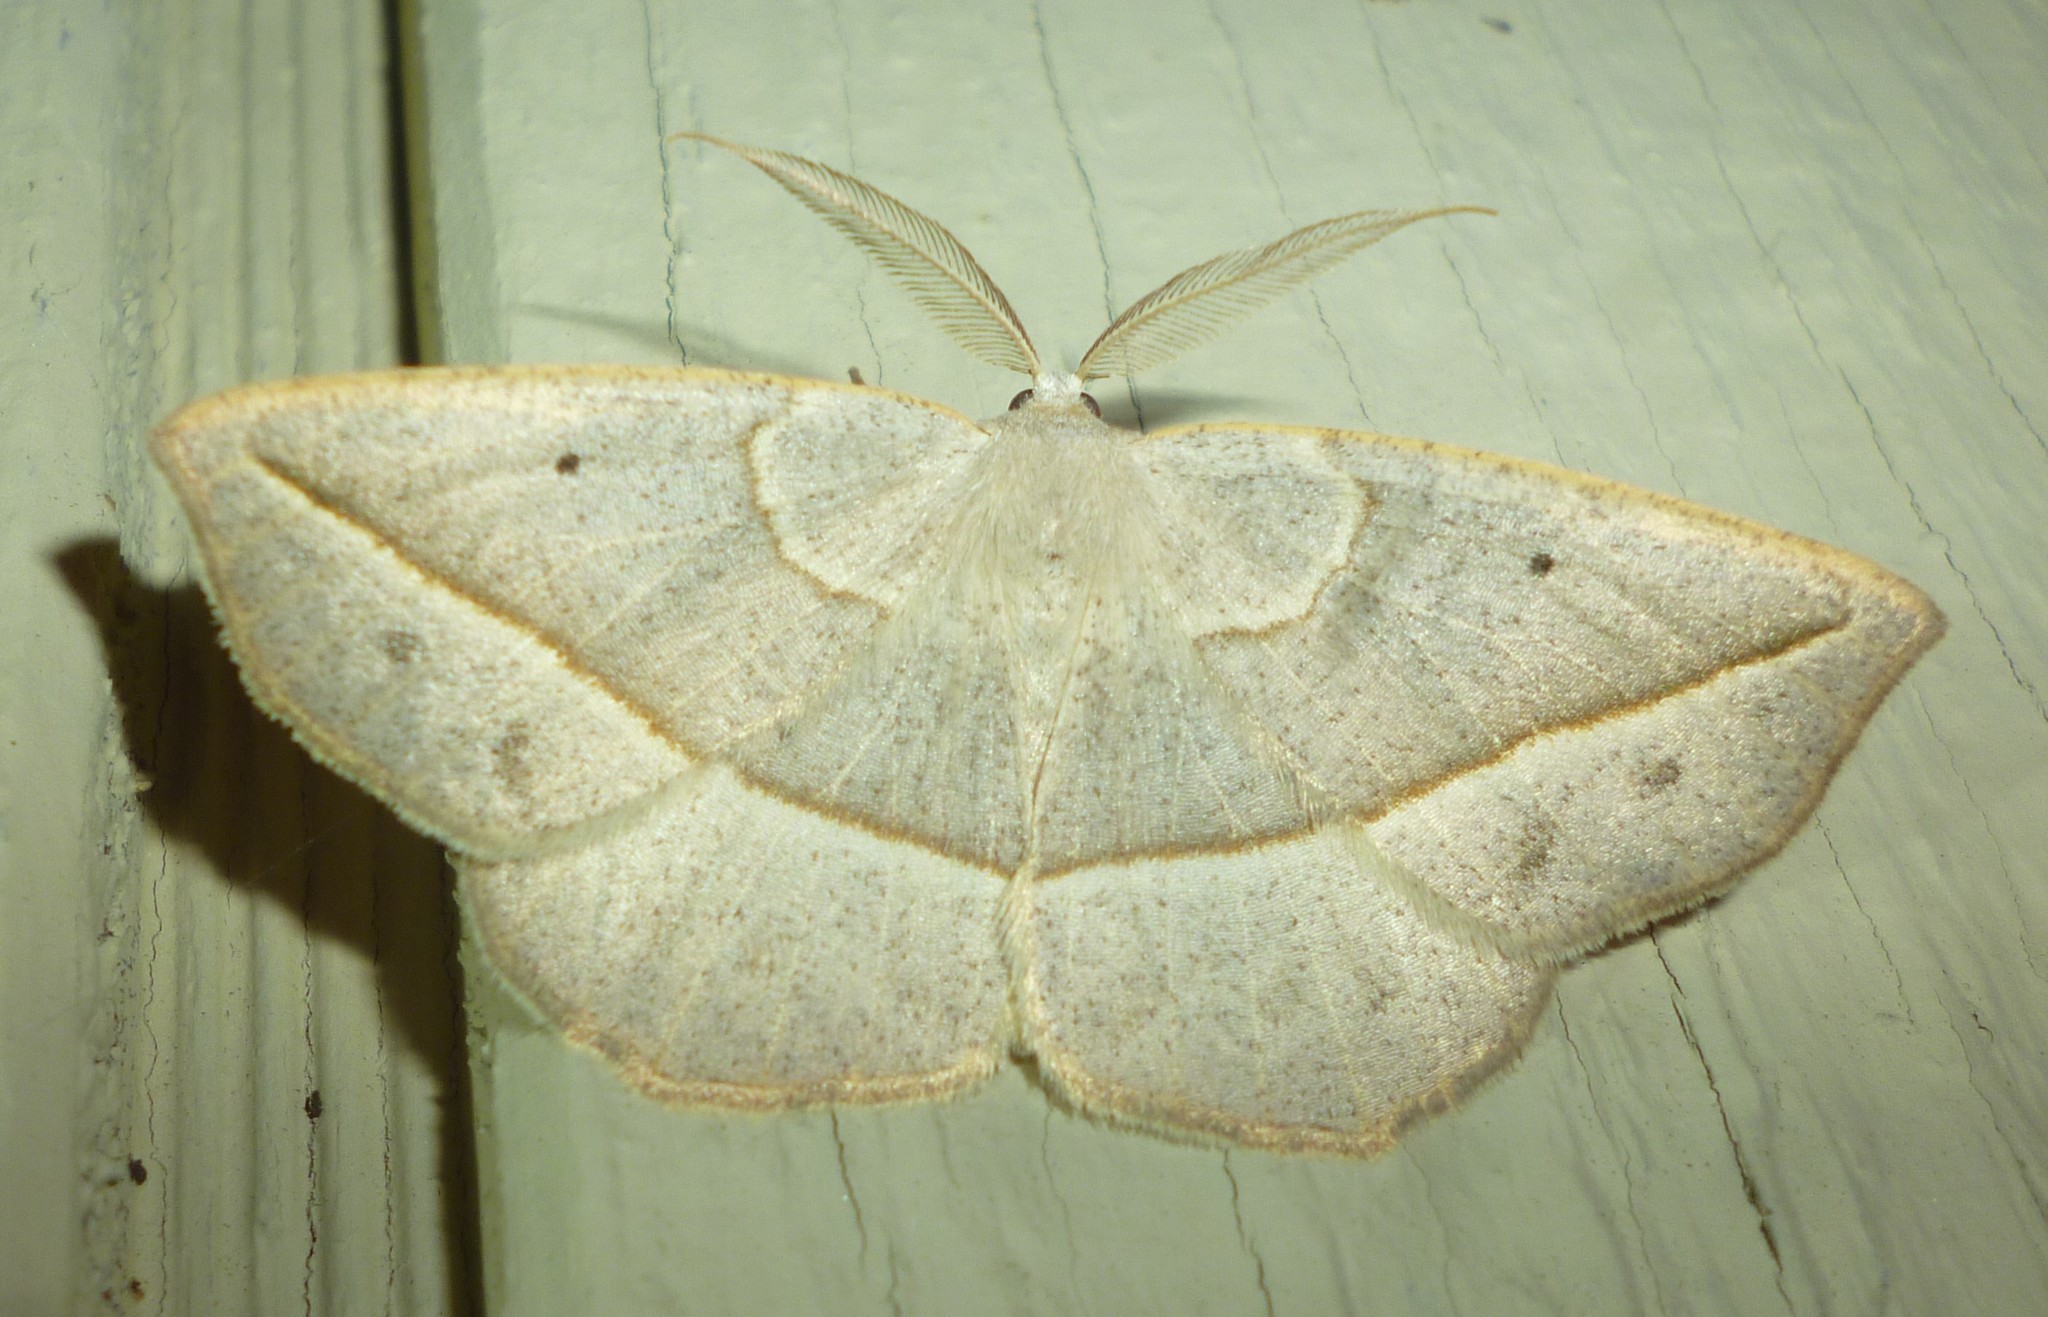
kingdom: Animalia
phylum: Arthropoda
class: Insecta
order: Lepidoptera
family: Geometridae
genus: Eusarca
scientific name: Eusarca confusaria
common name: Confused eusarca
